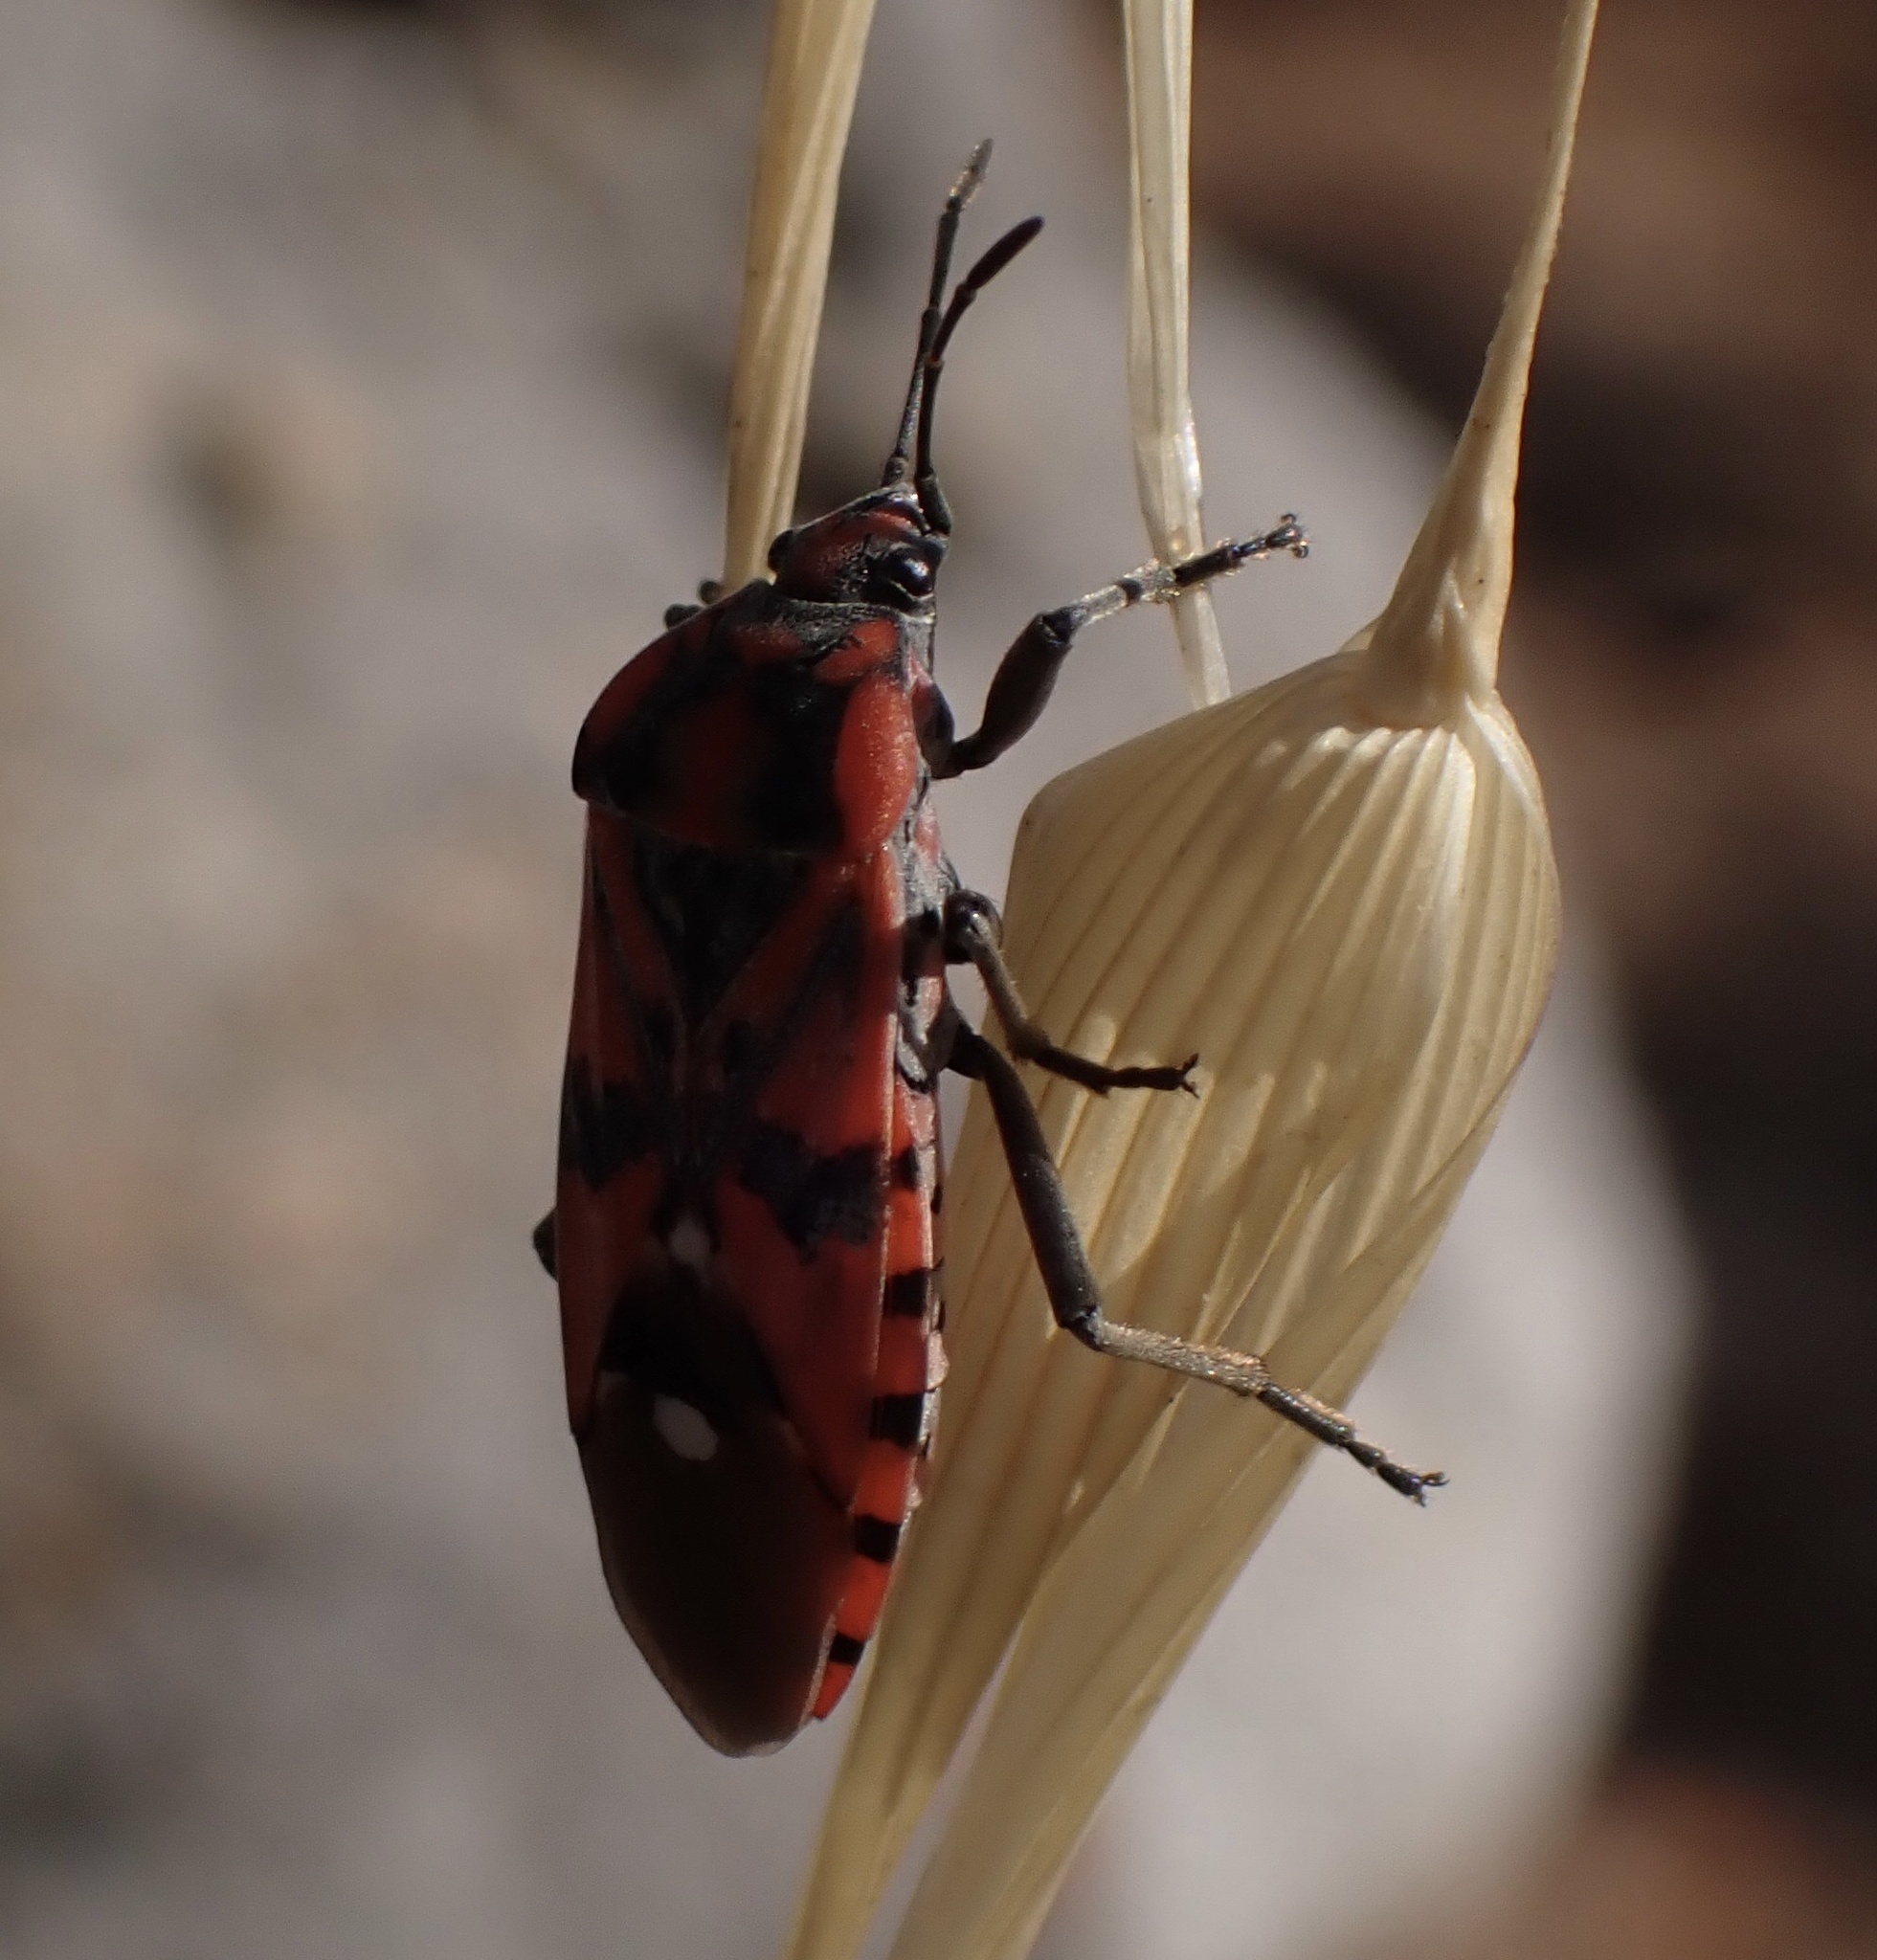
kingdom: Animalia
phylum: Arthropoda
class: Insecta
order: Hemiptera
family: Lygaeidae
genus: Spilostethus
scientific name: Spilostethus pandurus
